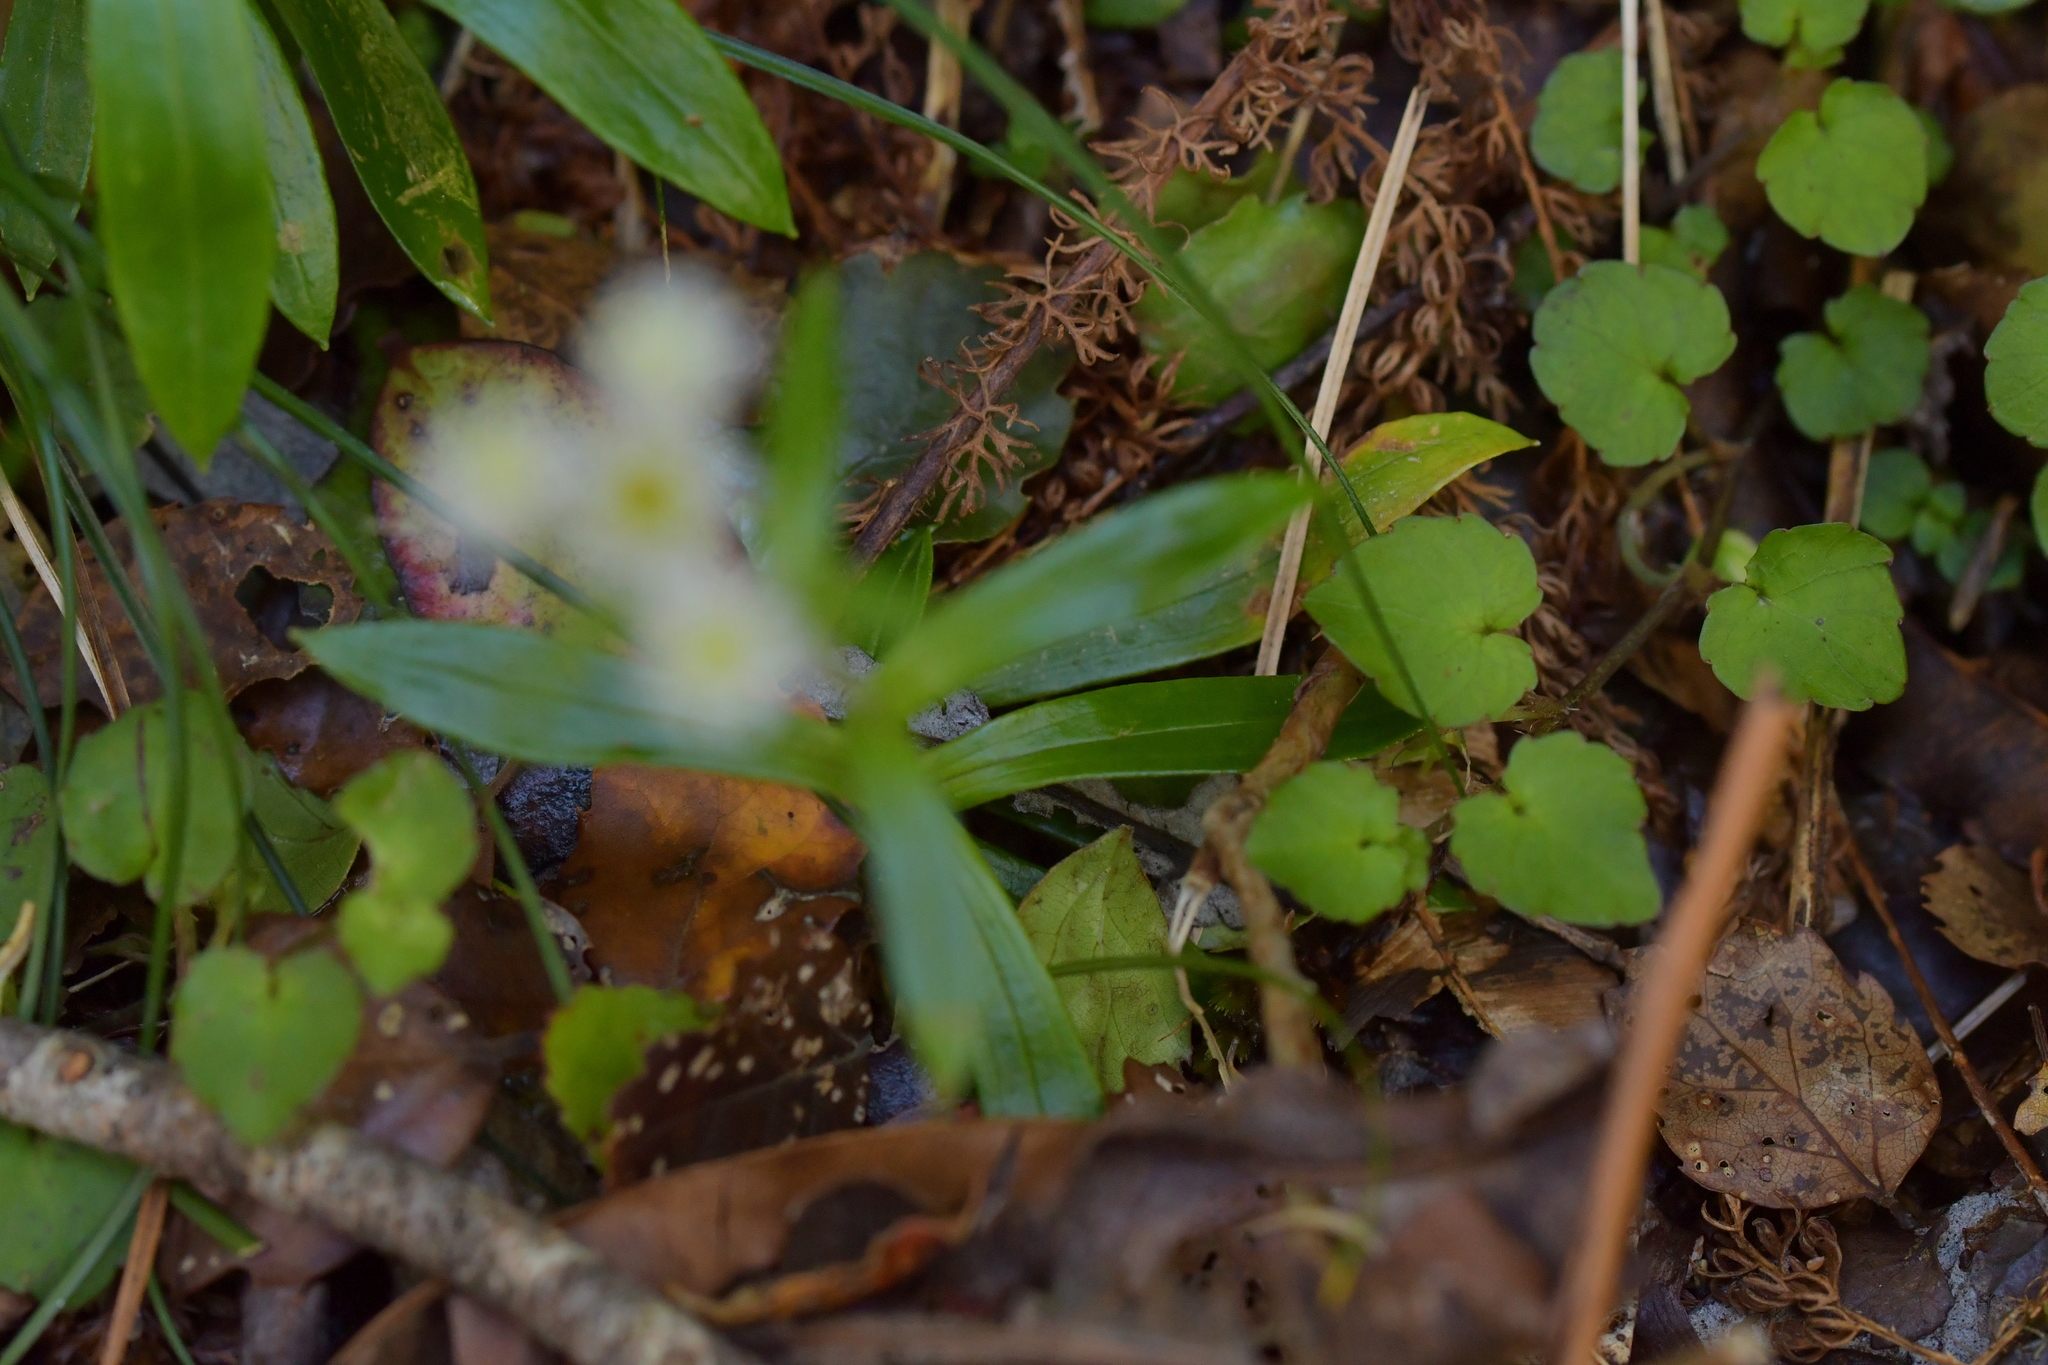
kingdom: Plantae
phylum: Tracheophyta
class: Magnoliopsida
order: Asterales
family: Asteraceae
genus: Anaphalioides
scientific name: Anaphalioides trinervis
